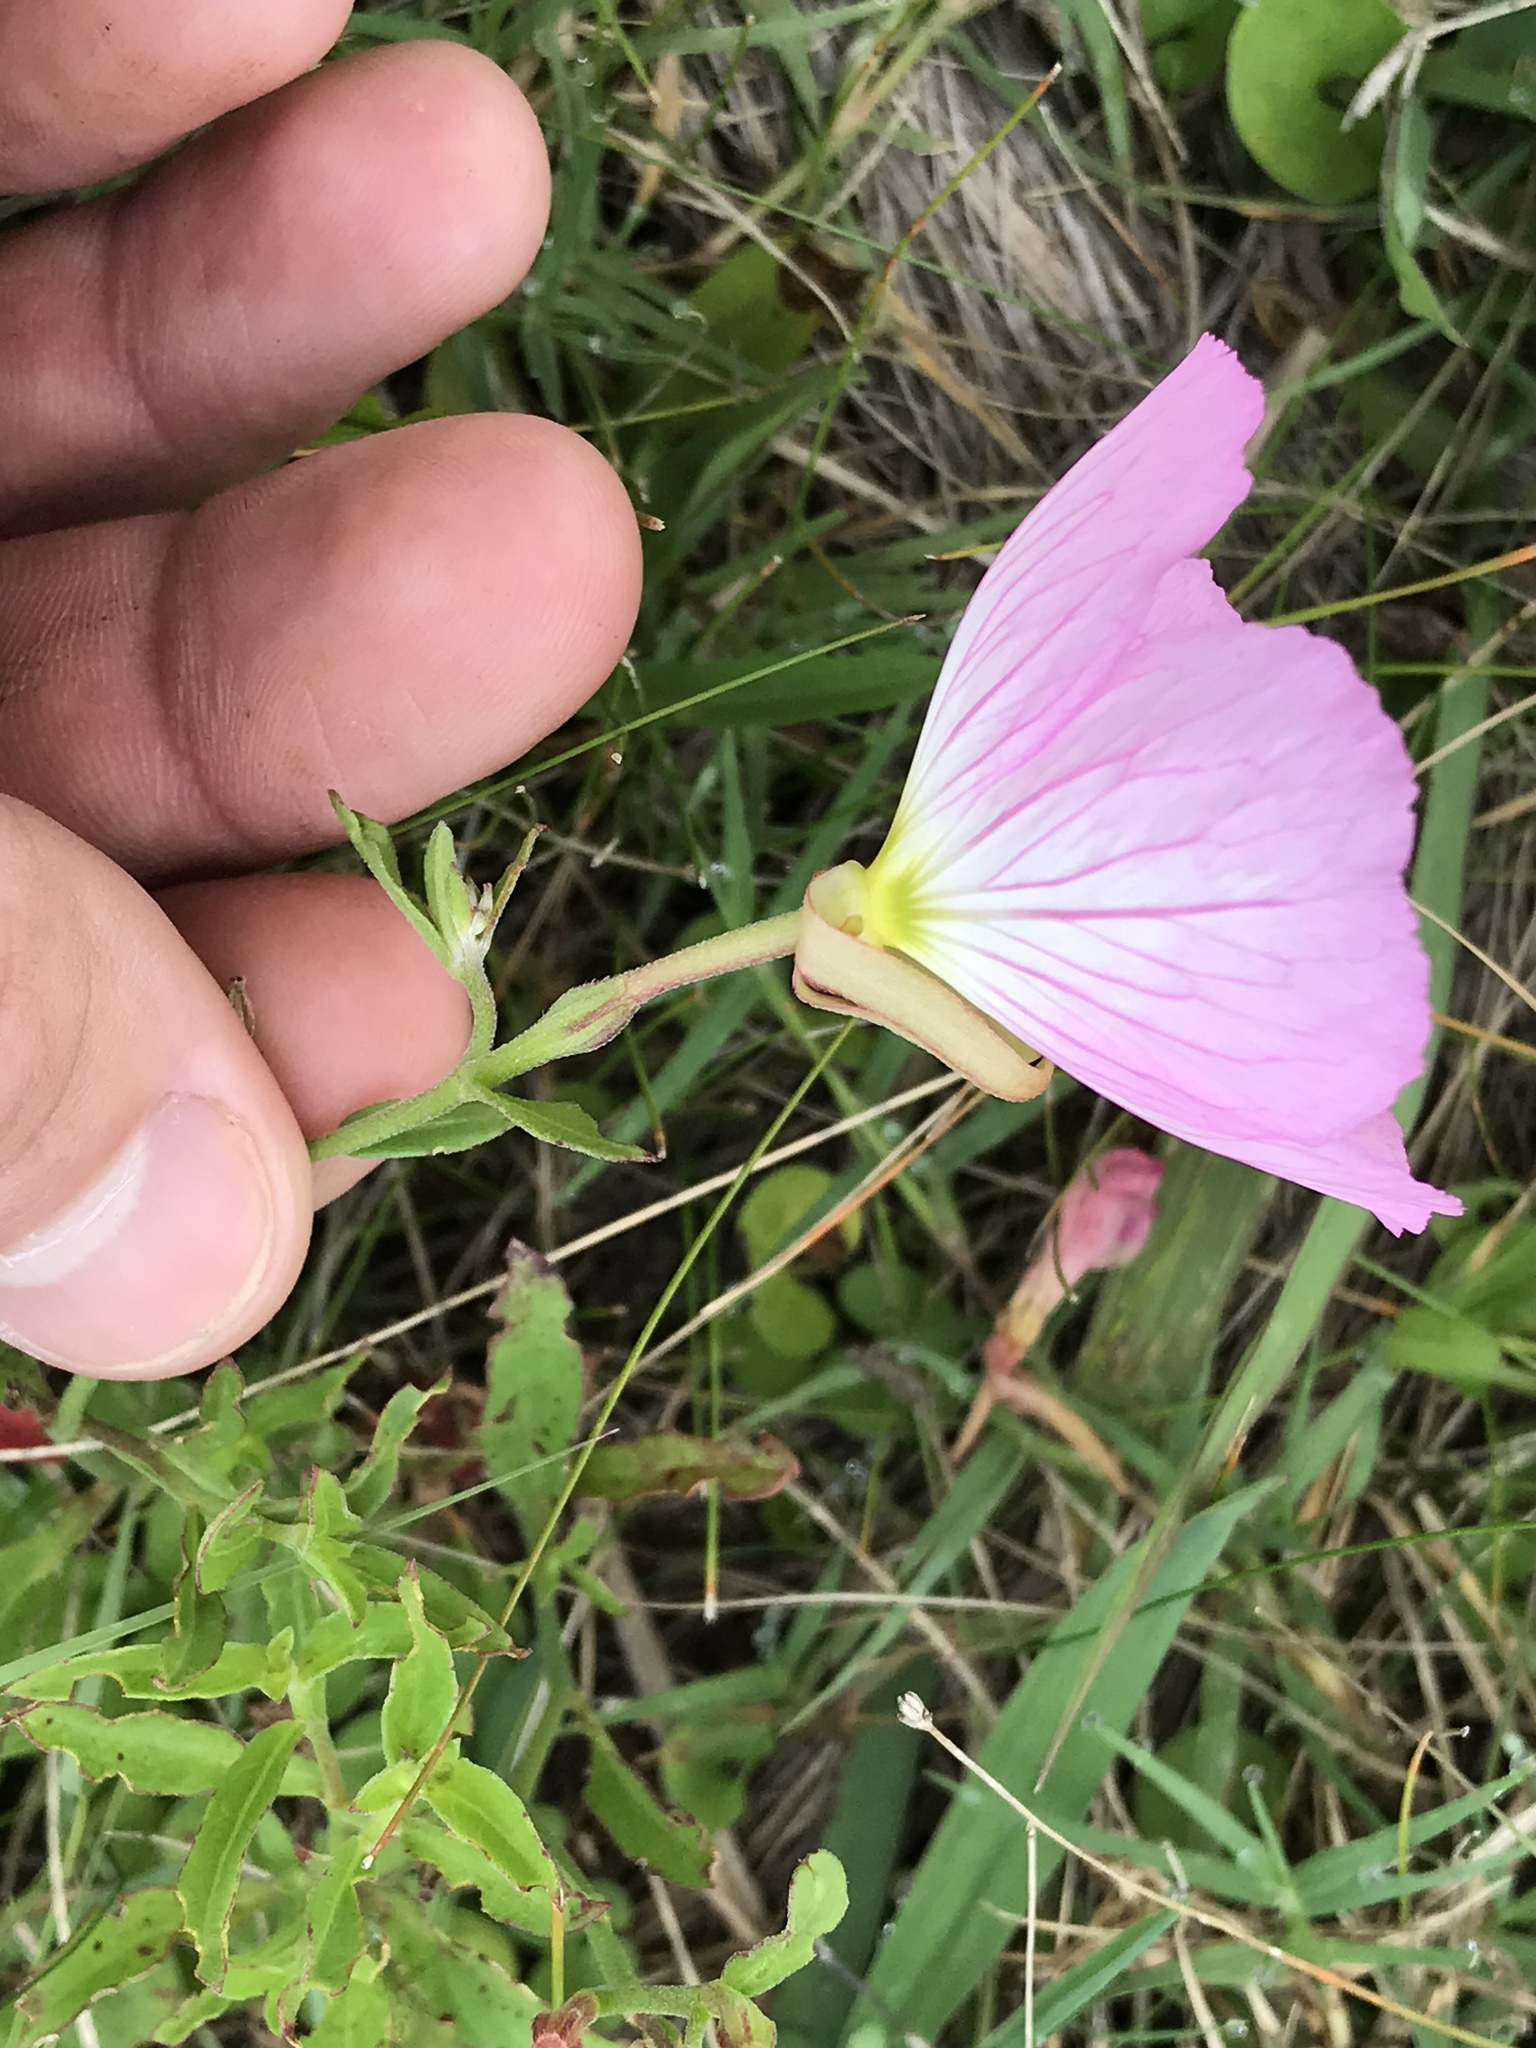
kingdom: Plantae
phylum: Tracheophyta
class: Magnoliopsida
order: Myrtales
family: Onagraceae
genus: Oenothera
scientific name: Oenothera speciosa
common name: White evening-primrose
